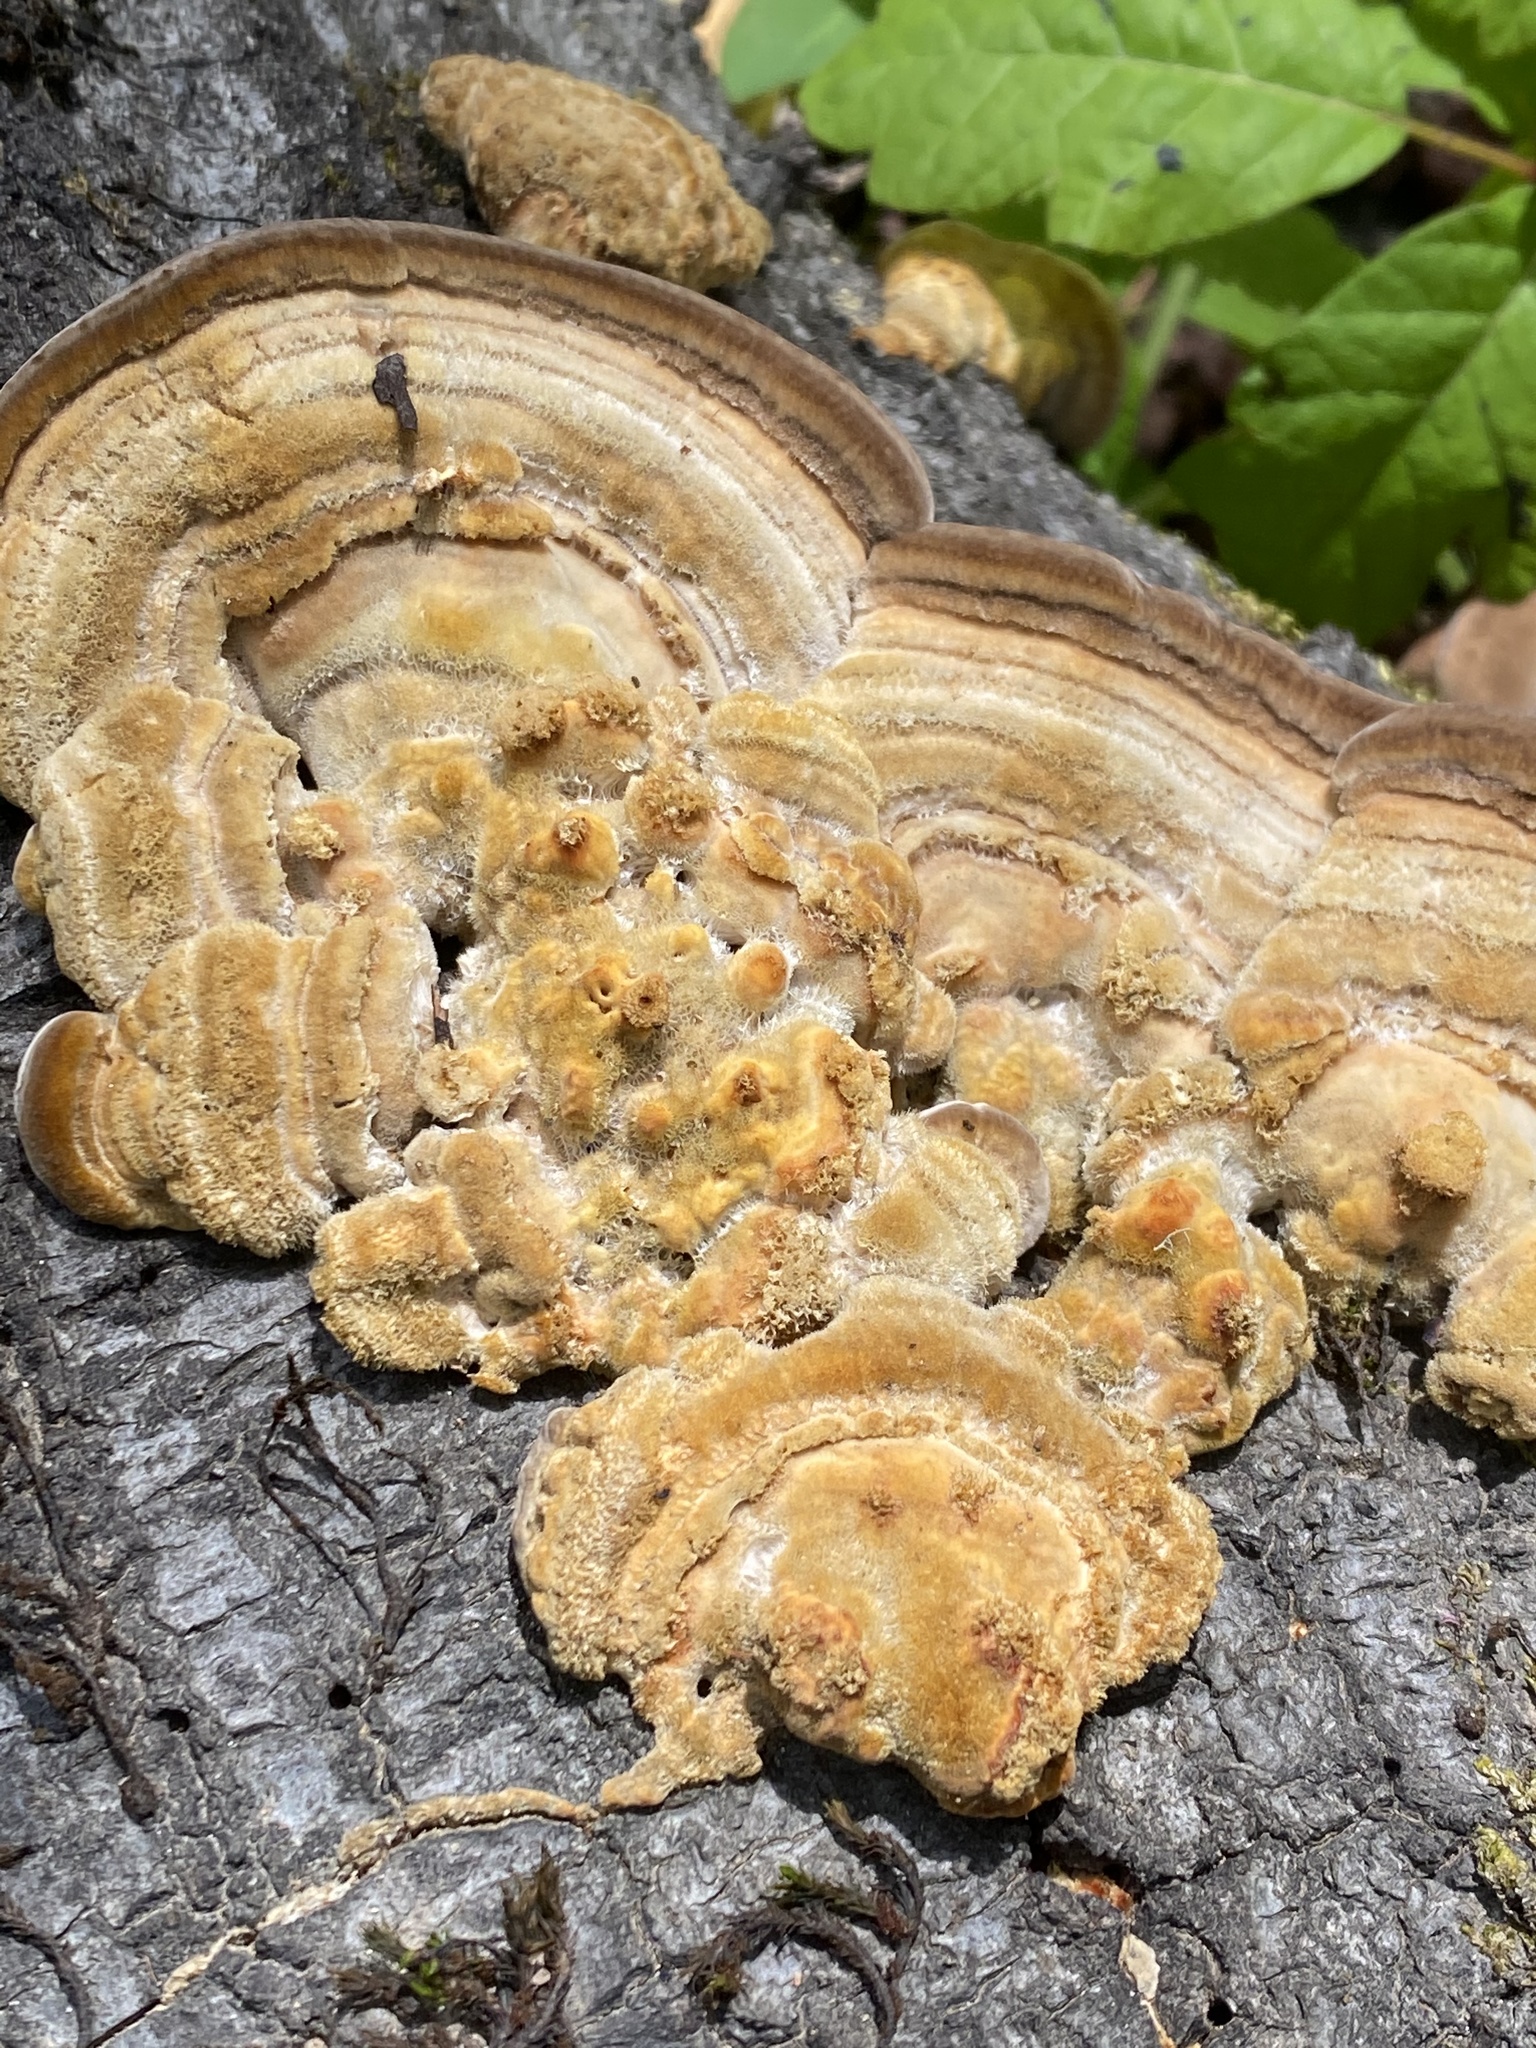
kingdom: Fungi
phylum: Basidiomycota
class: Agaricomycetes
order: Polyporales
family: Polyporaceae
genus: Lenzites
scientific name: Lenzites betulinus
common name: Birch mazegill
